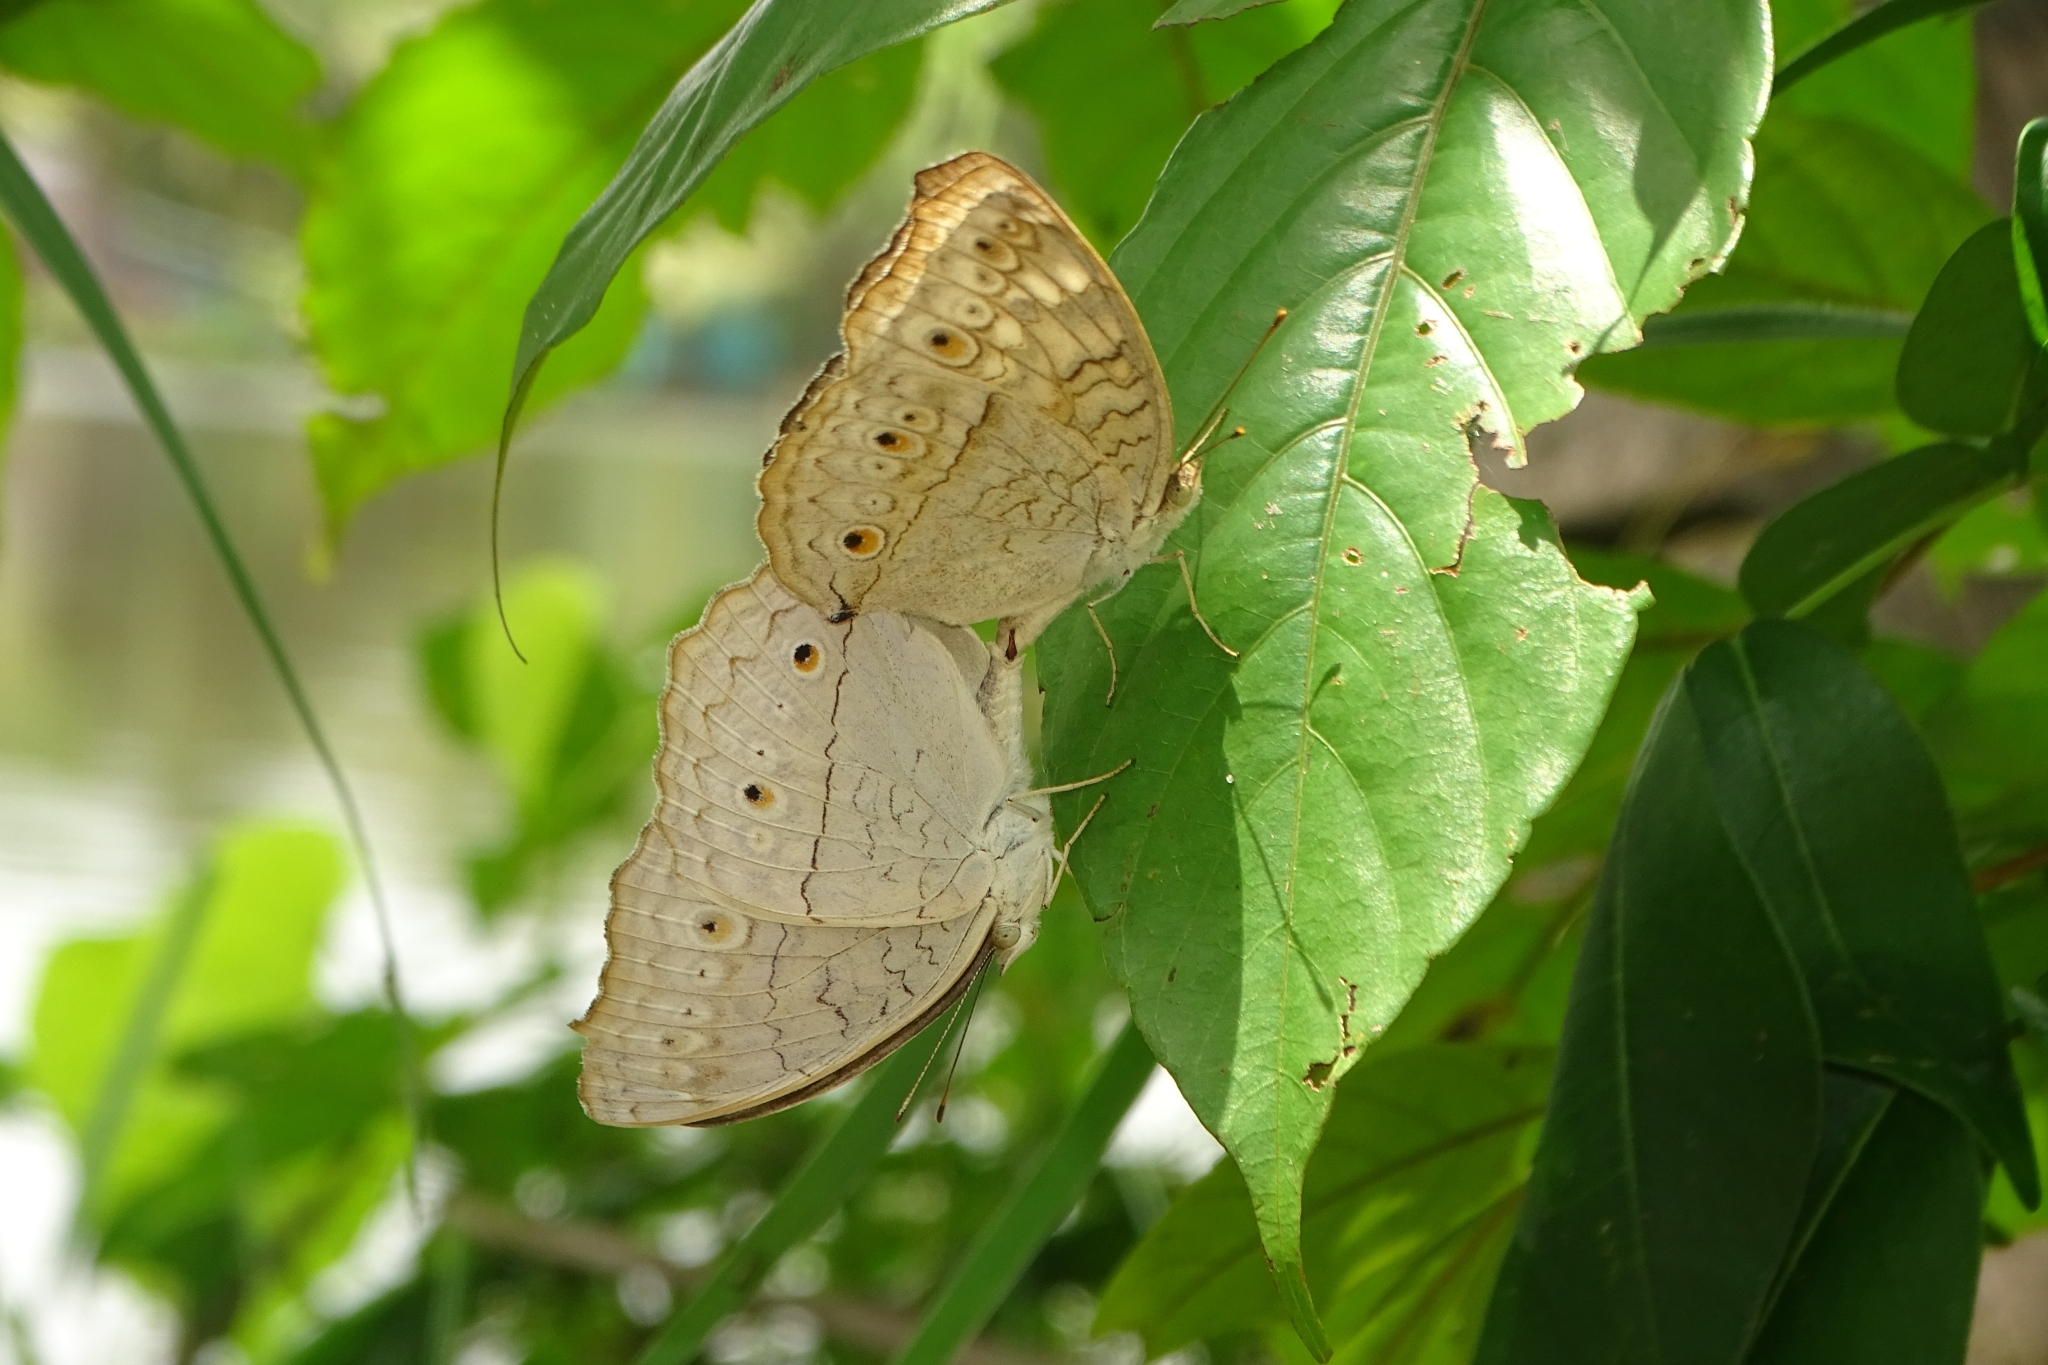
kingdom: Animalia
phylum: Arthropoda
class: Insecta
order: Lepidoptera
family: Nymphalidae
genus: Junonia
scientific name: Junonia atlites
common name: Grey pansy
